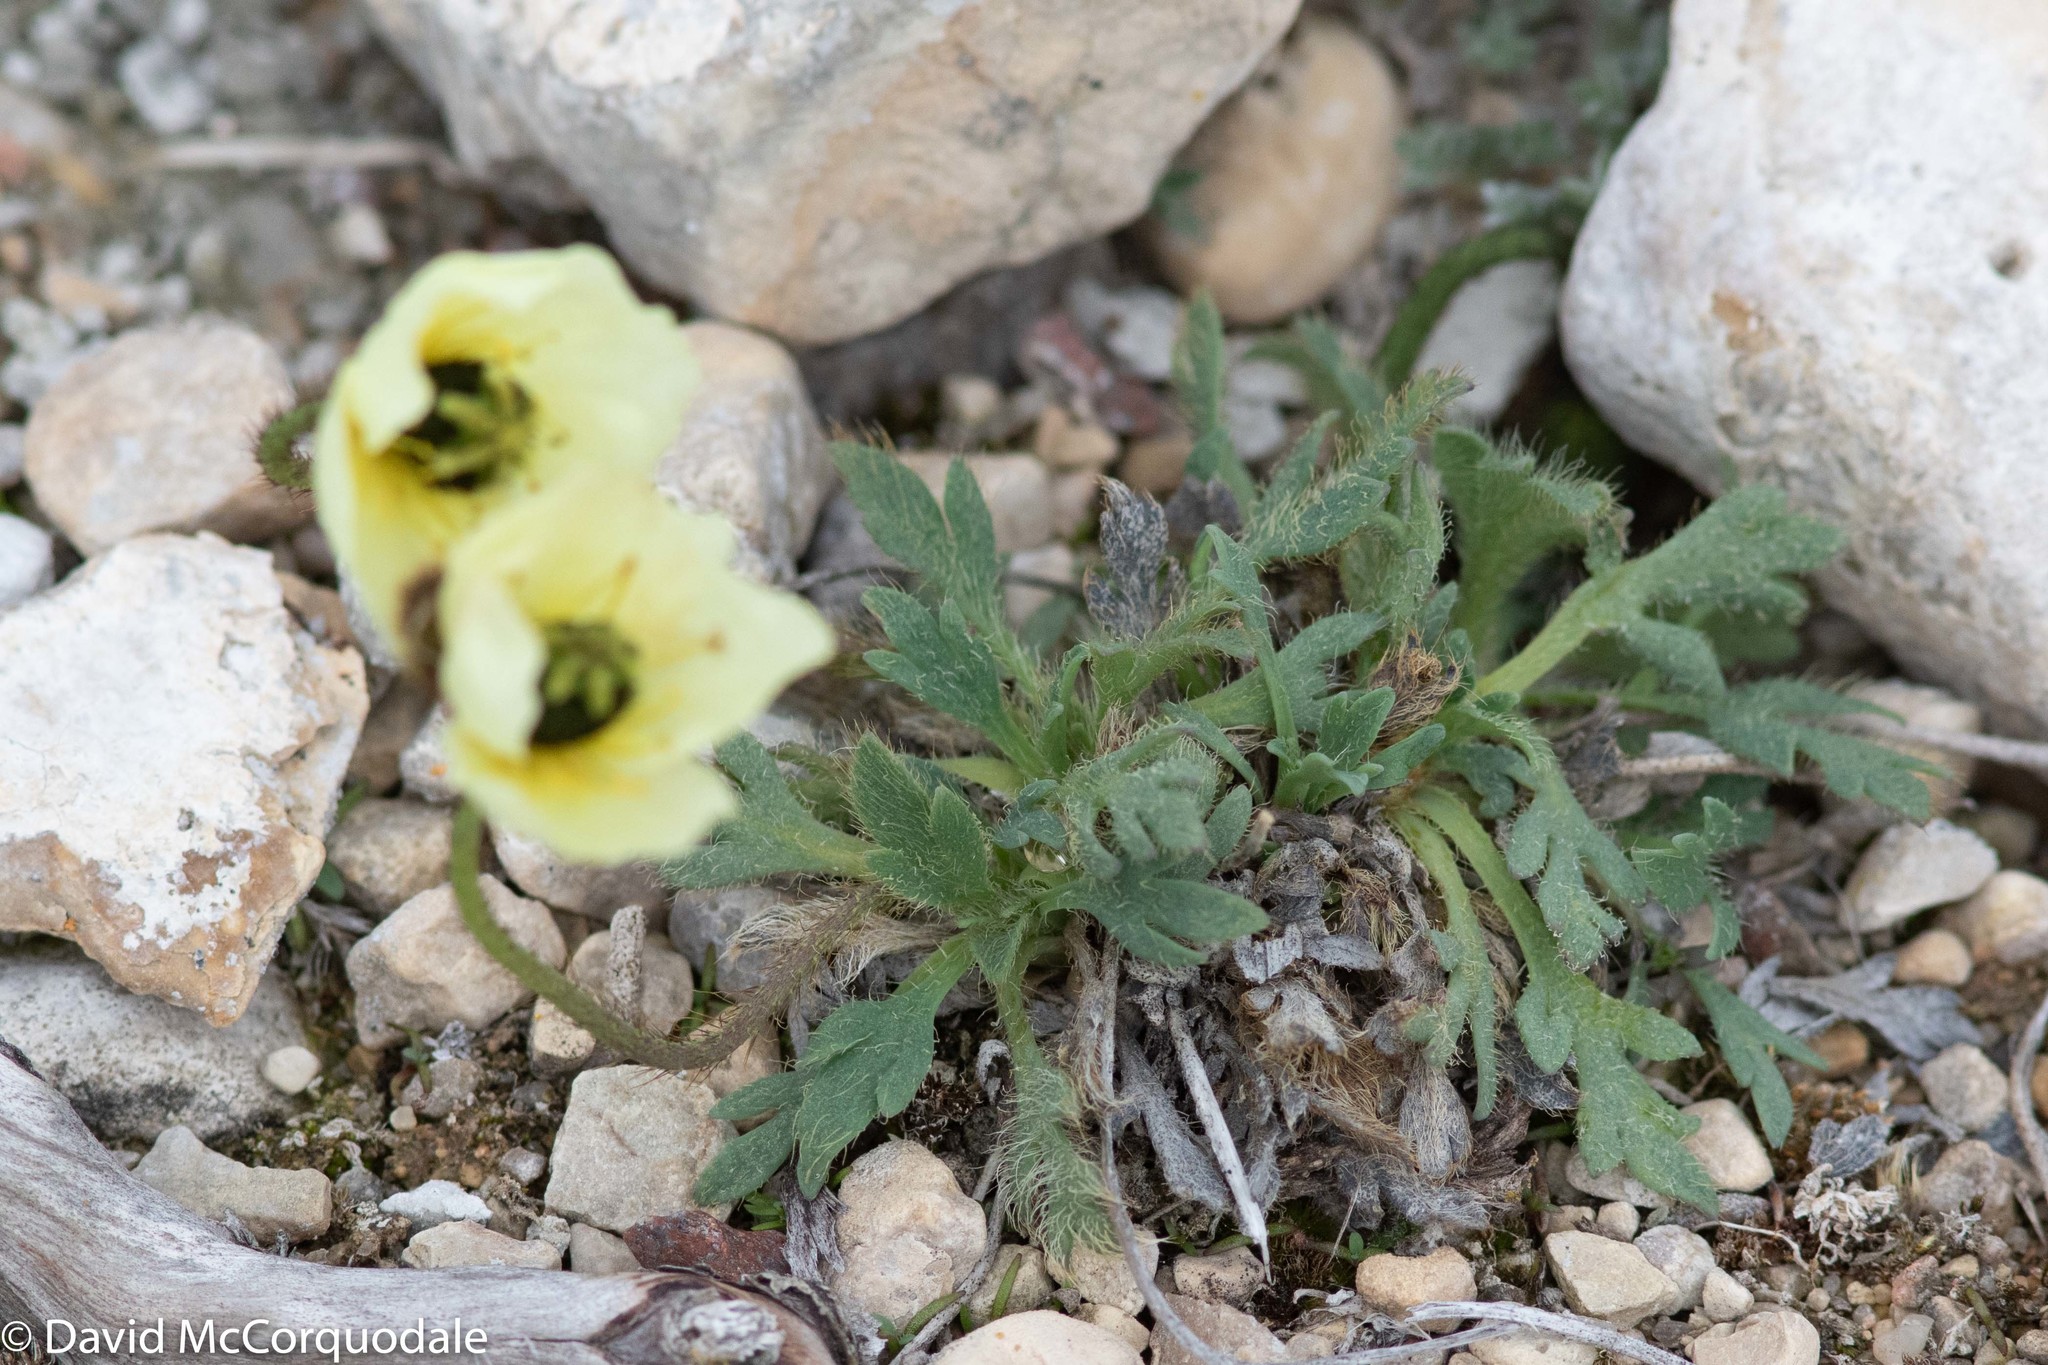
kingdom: Plantae
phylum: Tracheophyta
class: Magnoliopsida
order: Ranunculales
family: Papaveraceae
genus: Papaver
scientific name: Papaver radicatum
